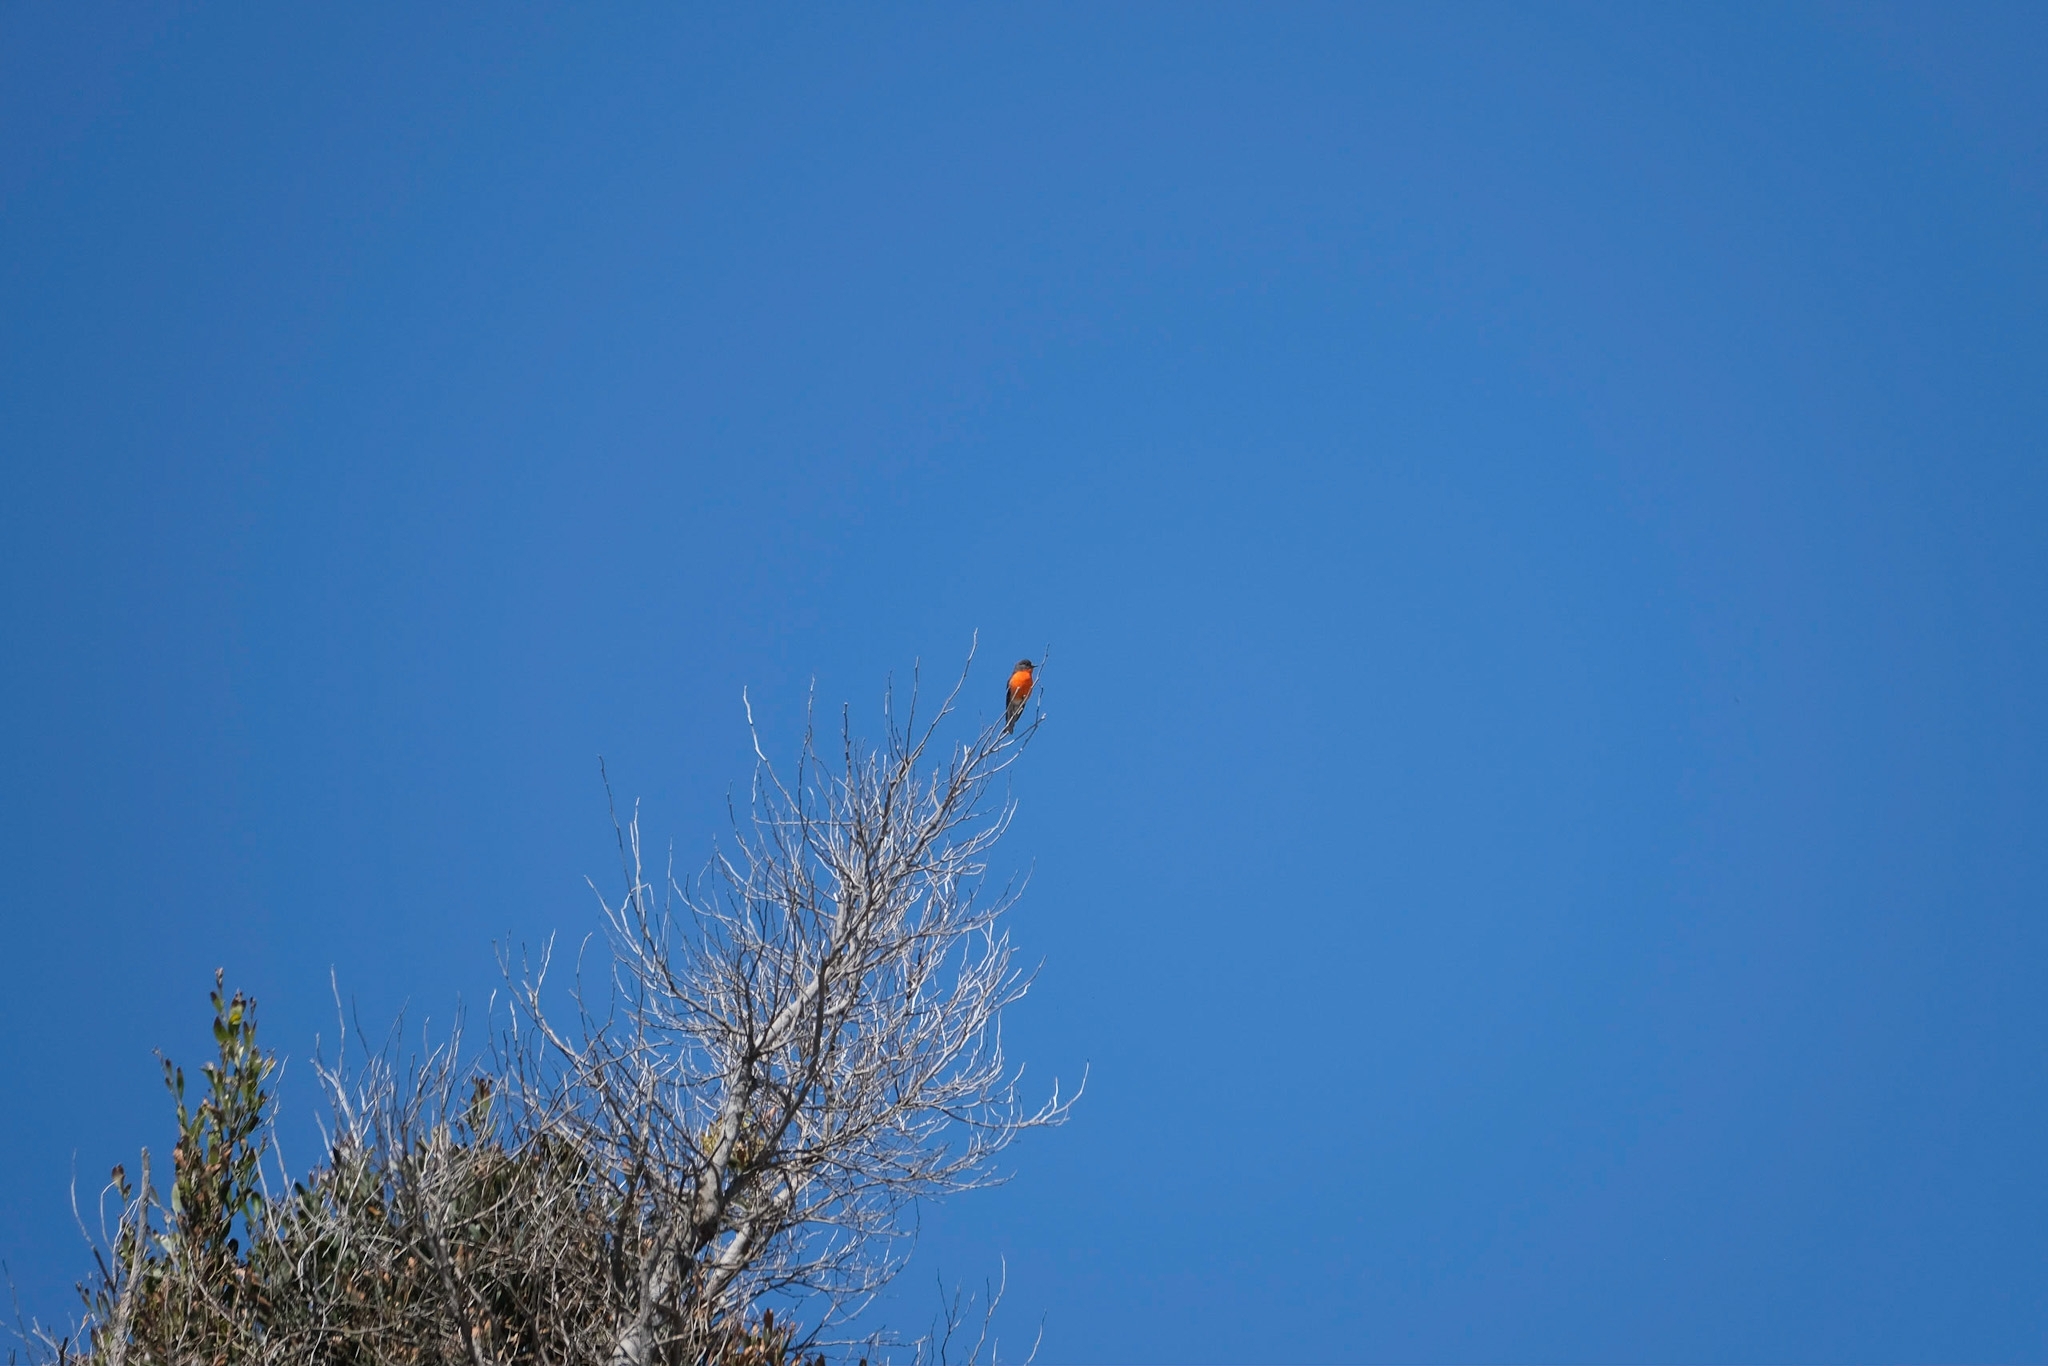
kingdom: Animalia
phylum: Chordata
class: Aves
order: Passeriformes
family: Petroicidae
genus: Petroica
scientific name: Petroica phoenicea
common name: Flame robin
